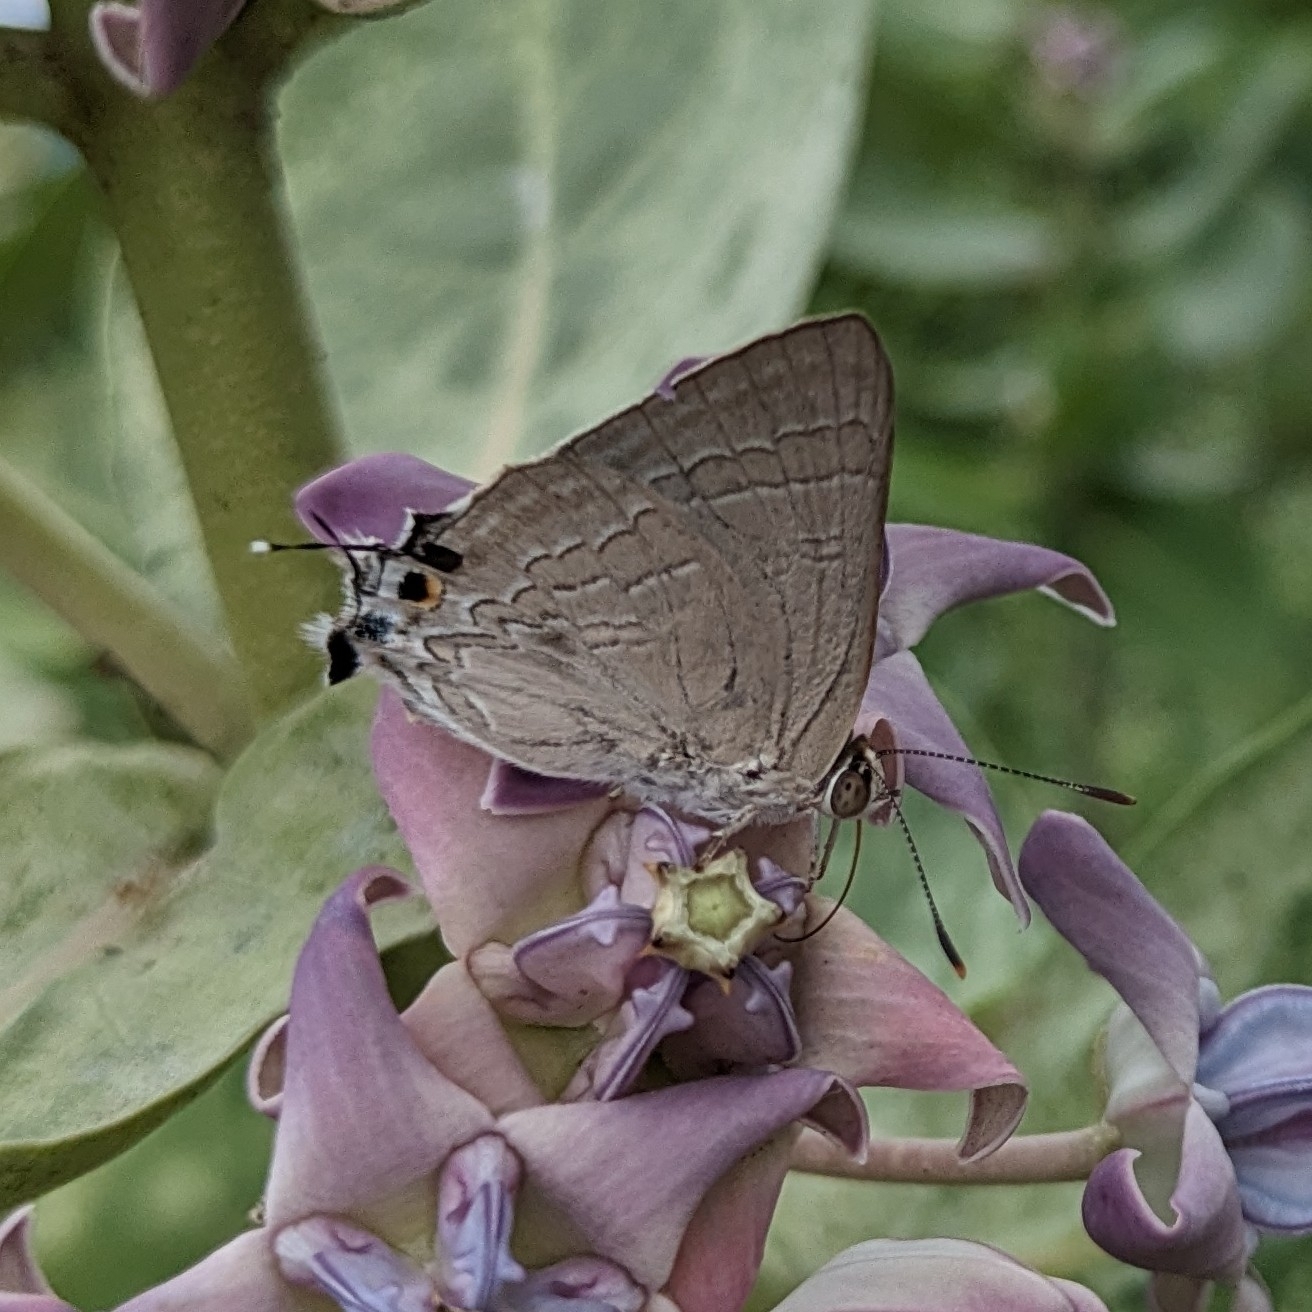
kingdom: Animalia
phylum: Arthropoda
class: Insecta
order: Lepidoptera
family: Lycaenidae
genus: Deudorix
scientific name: Deudorix
